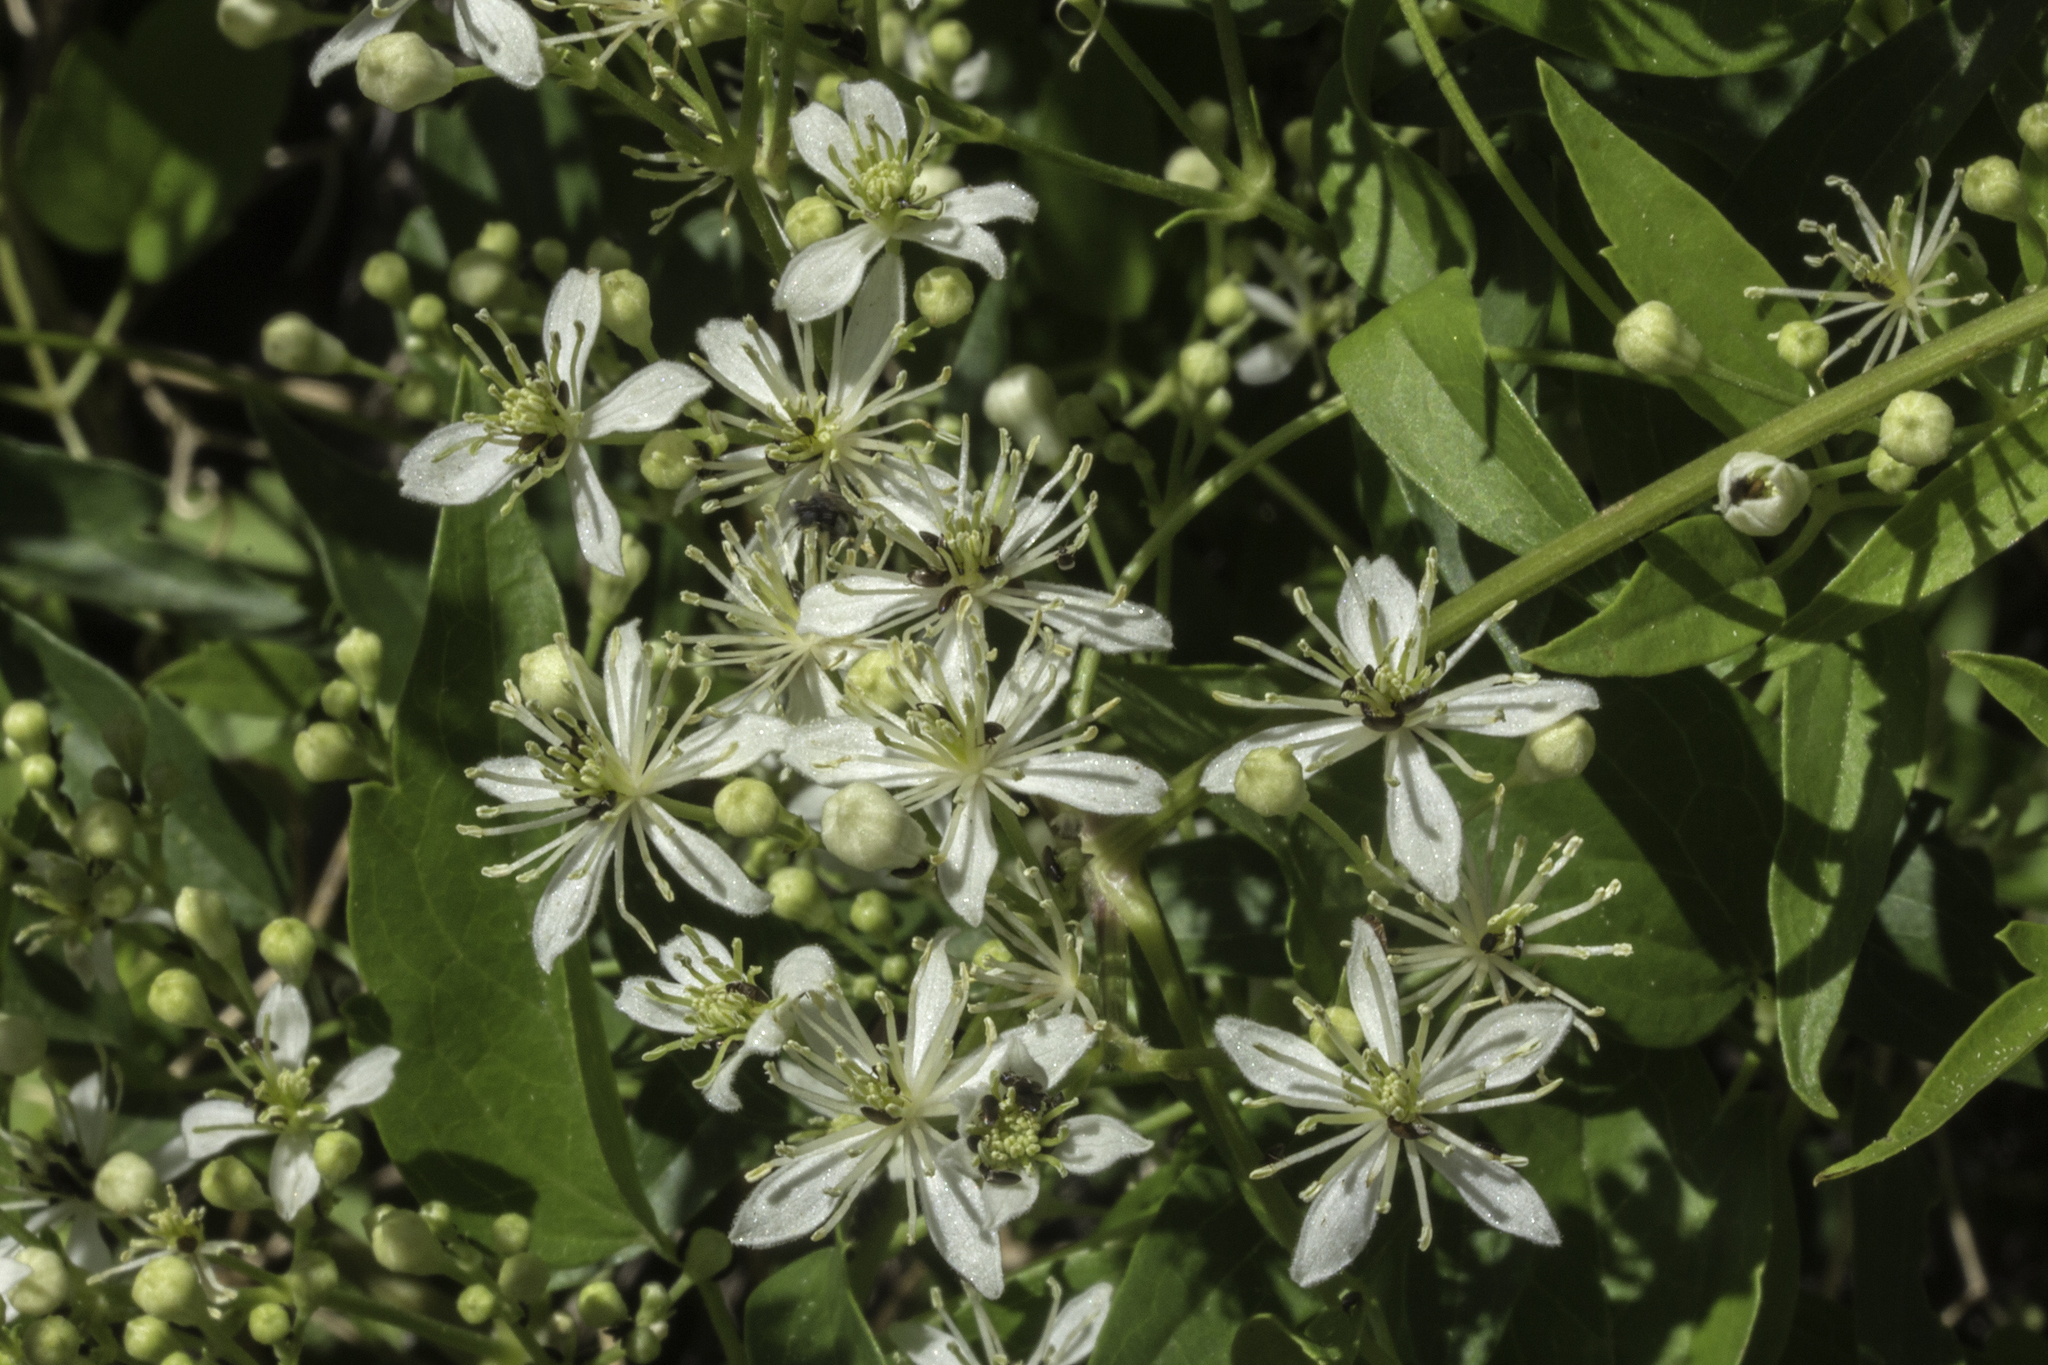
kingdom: Plantae
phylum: Tracheophyta
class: Magnoliopsida
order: Ranunculales
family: Ranunculaceae
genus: Clematis
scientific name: Clematis ligusticifolia
